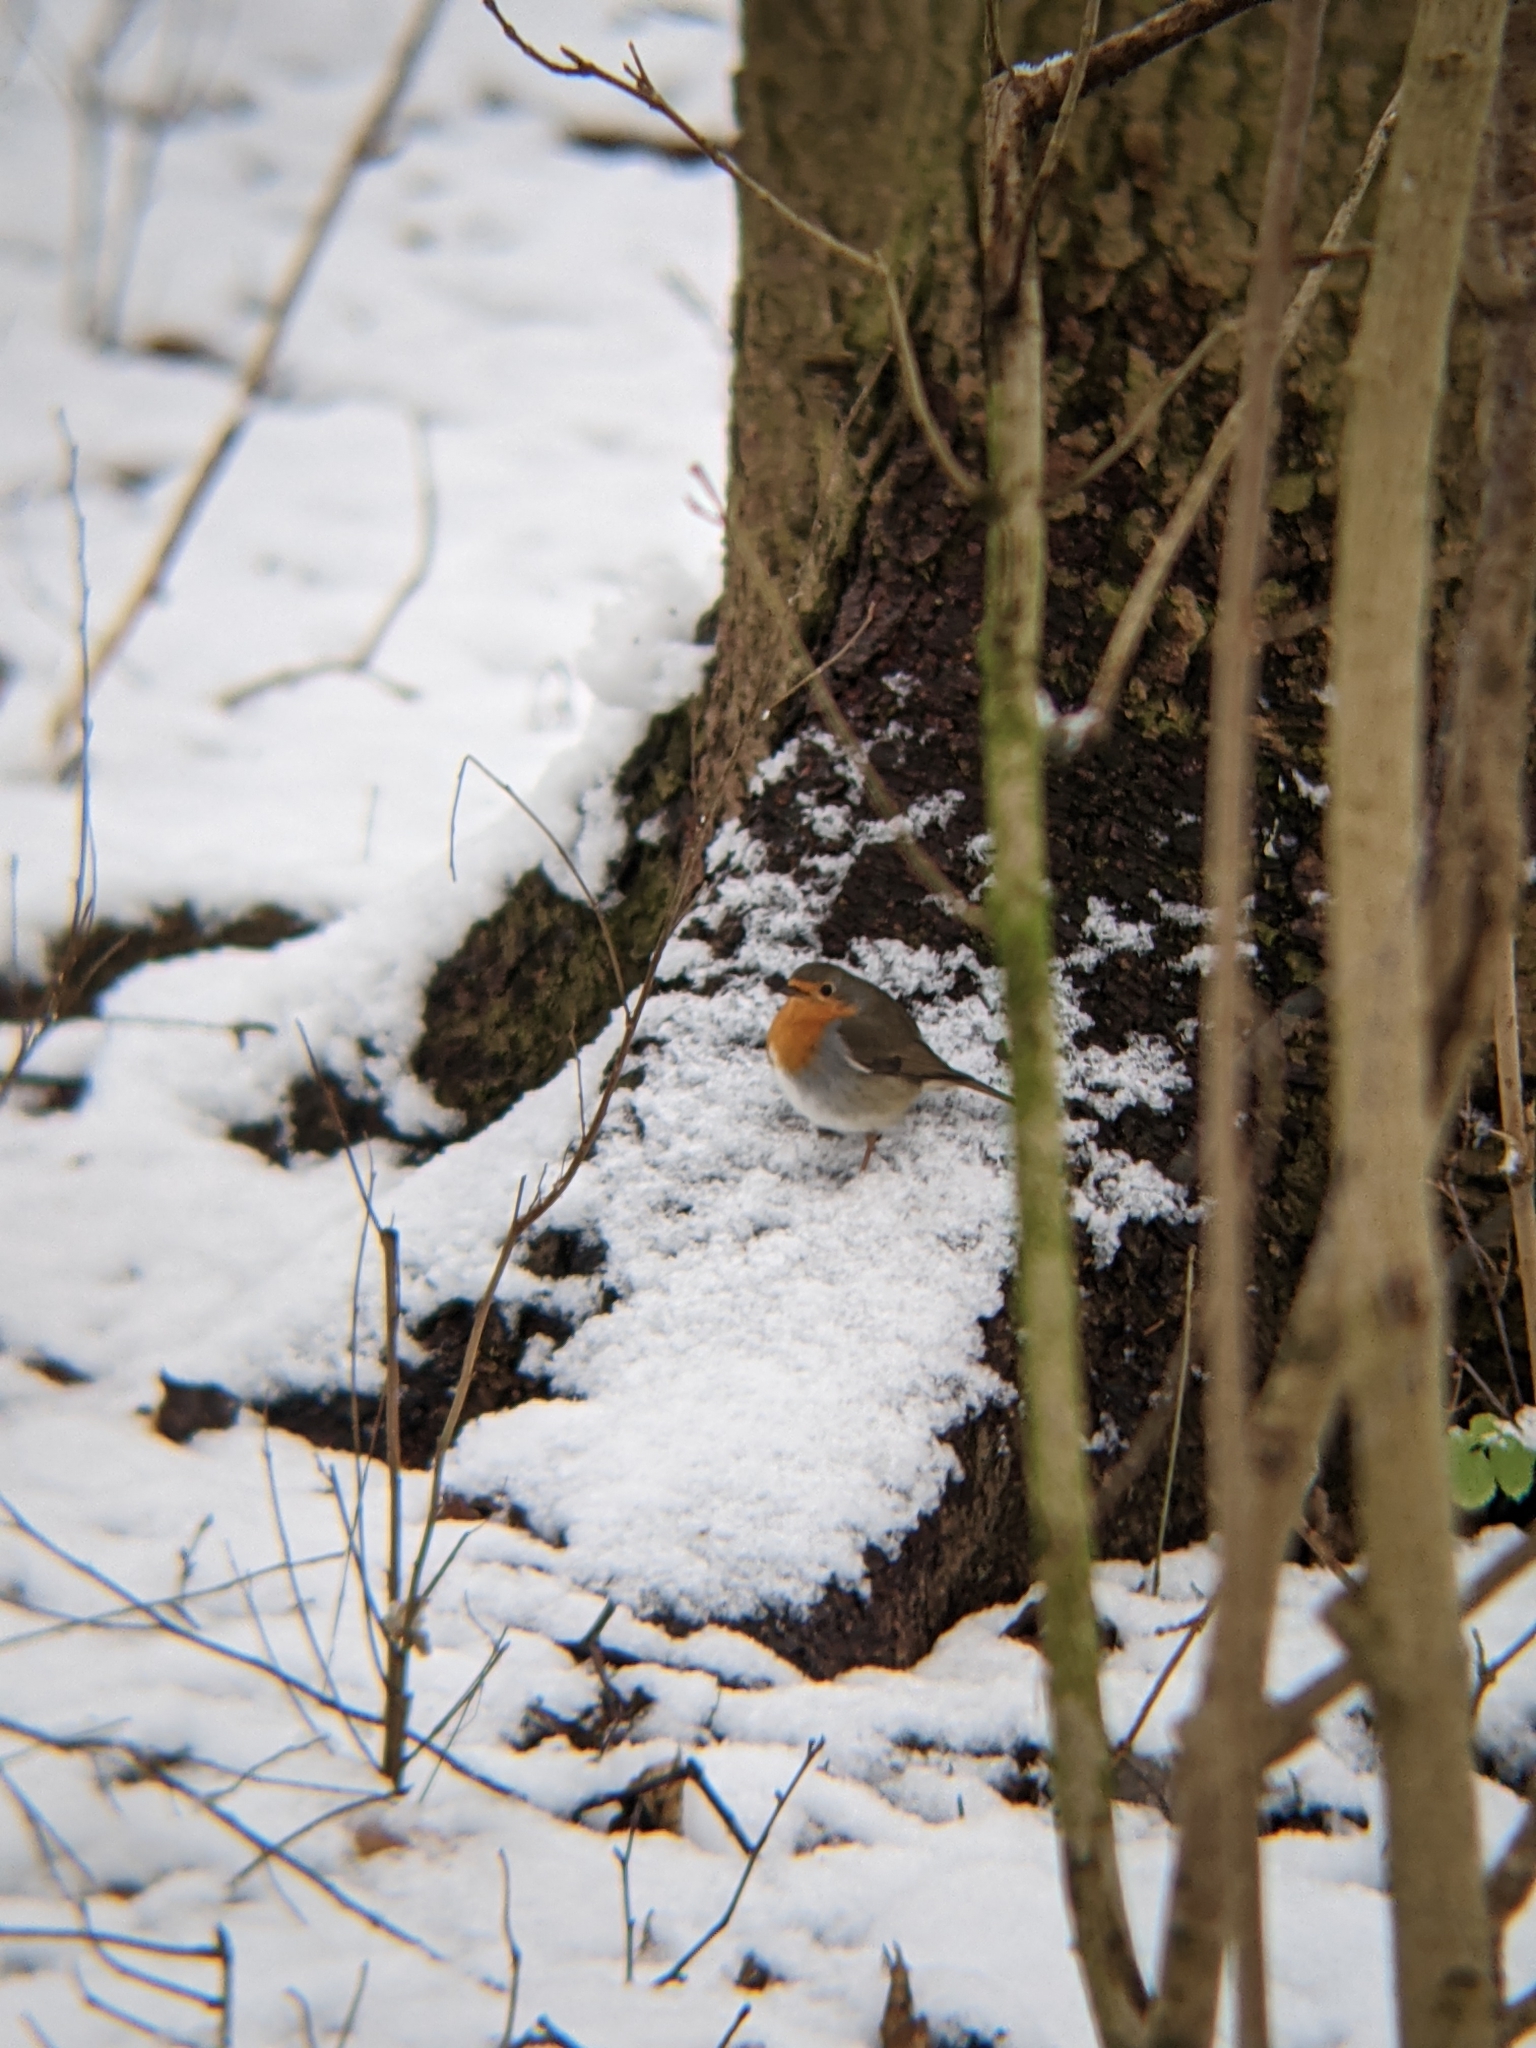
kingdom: Animalia
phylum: Chordata
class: Aves
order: Passeriformes
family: Muscicapidae
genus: Erithacus
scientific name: Erithacus rubecula
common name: European robin
